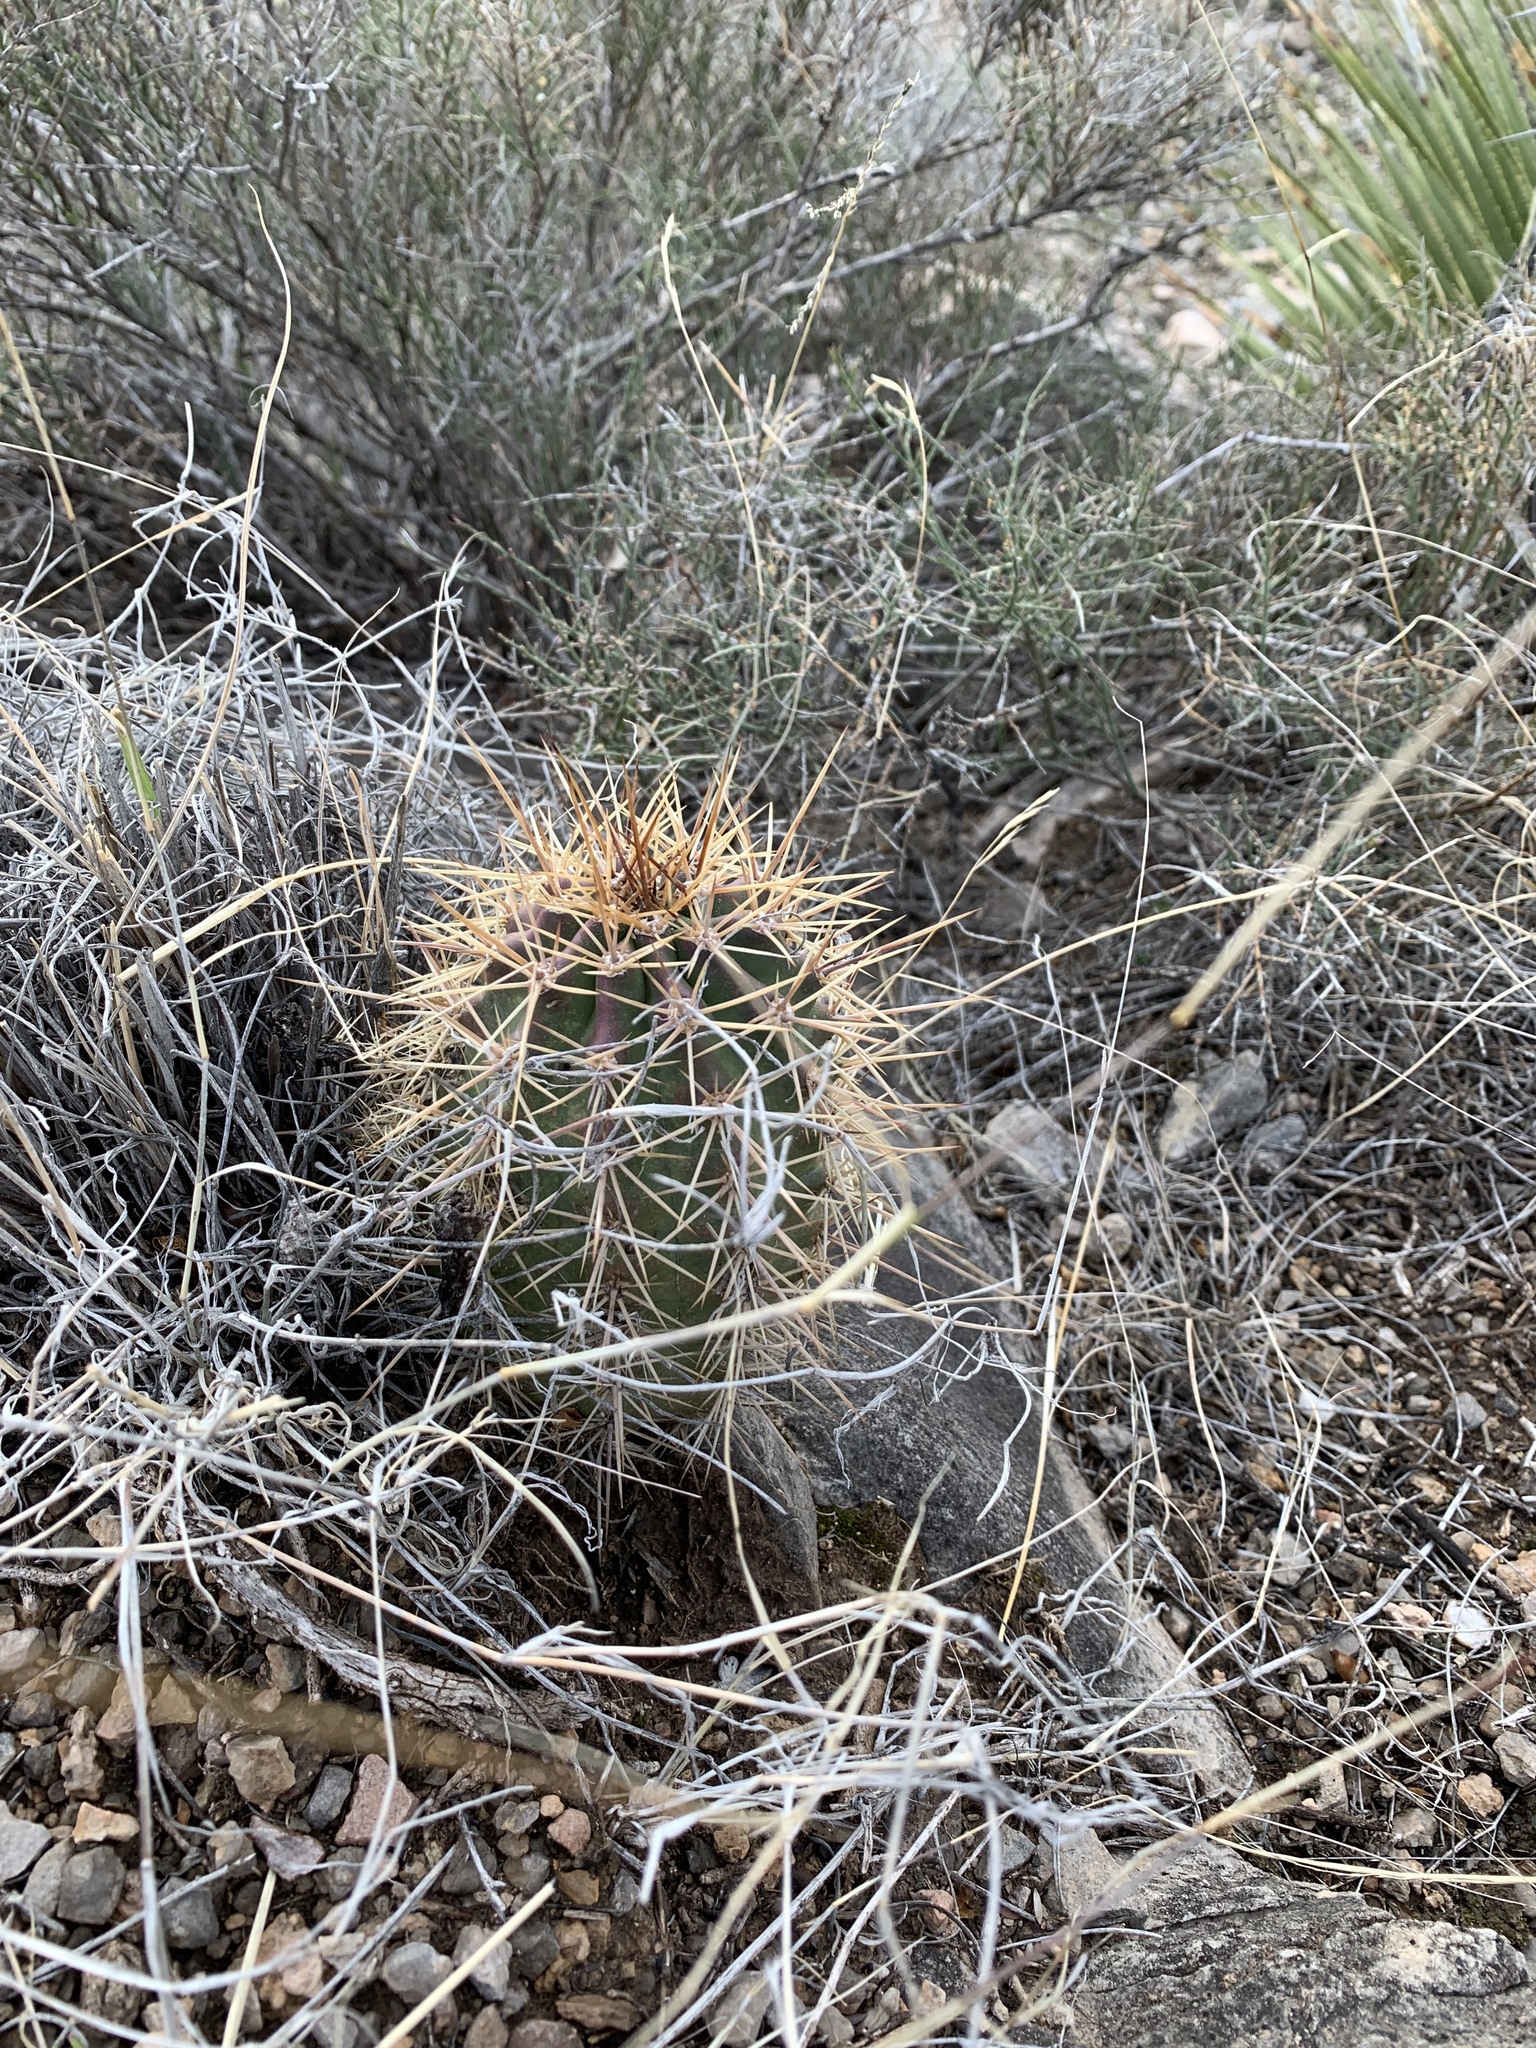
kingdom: Plantae
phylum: Tracheophyta
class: Magnoliopsida
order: Caryophyllales
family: Cactaceae
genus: Echinocereus
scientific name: Echinocereus coccineus
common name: Scarlet hedgehog cactus
